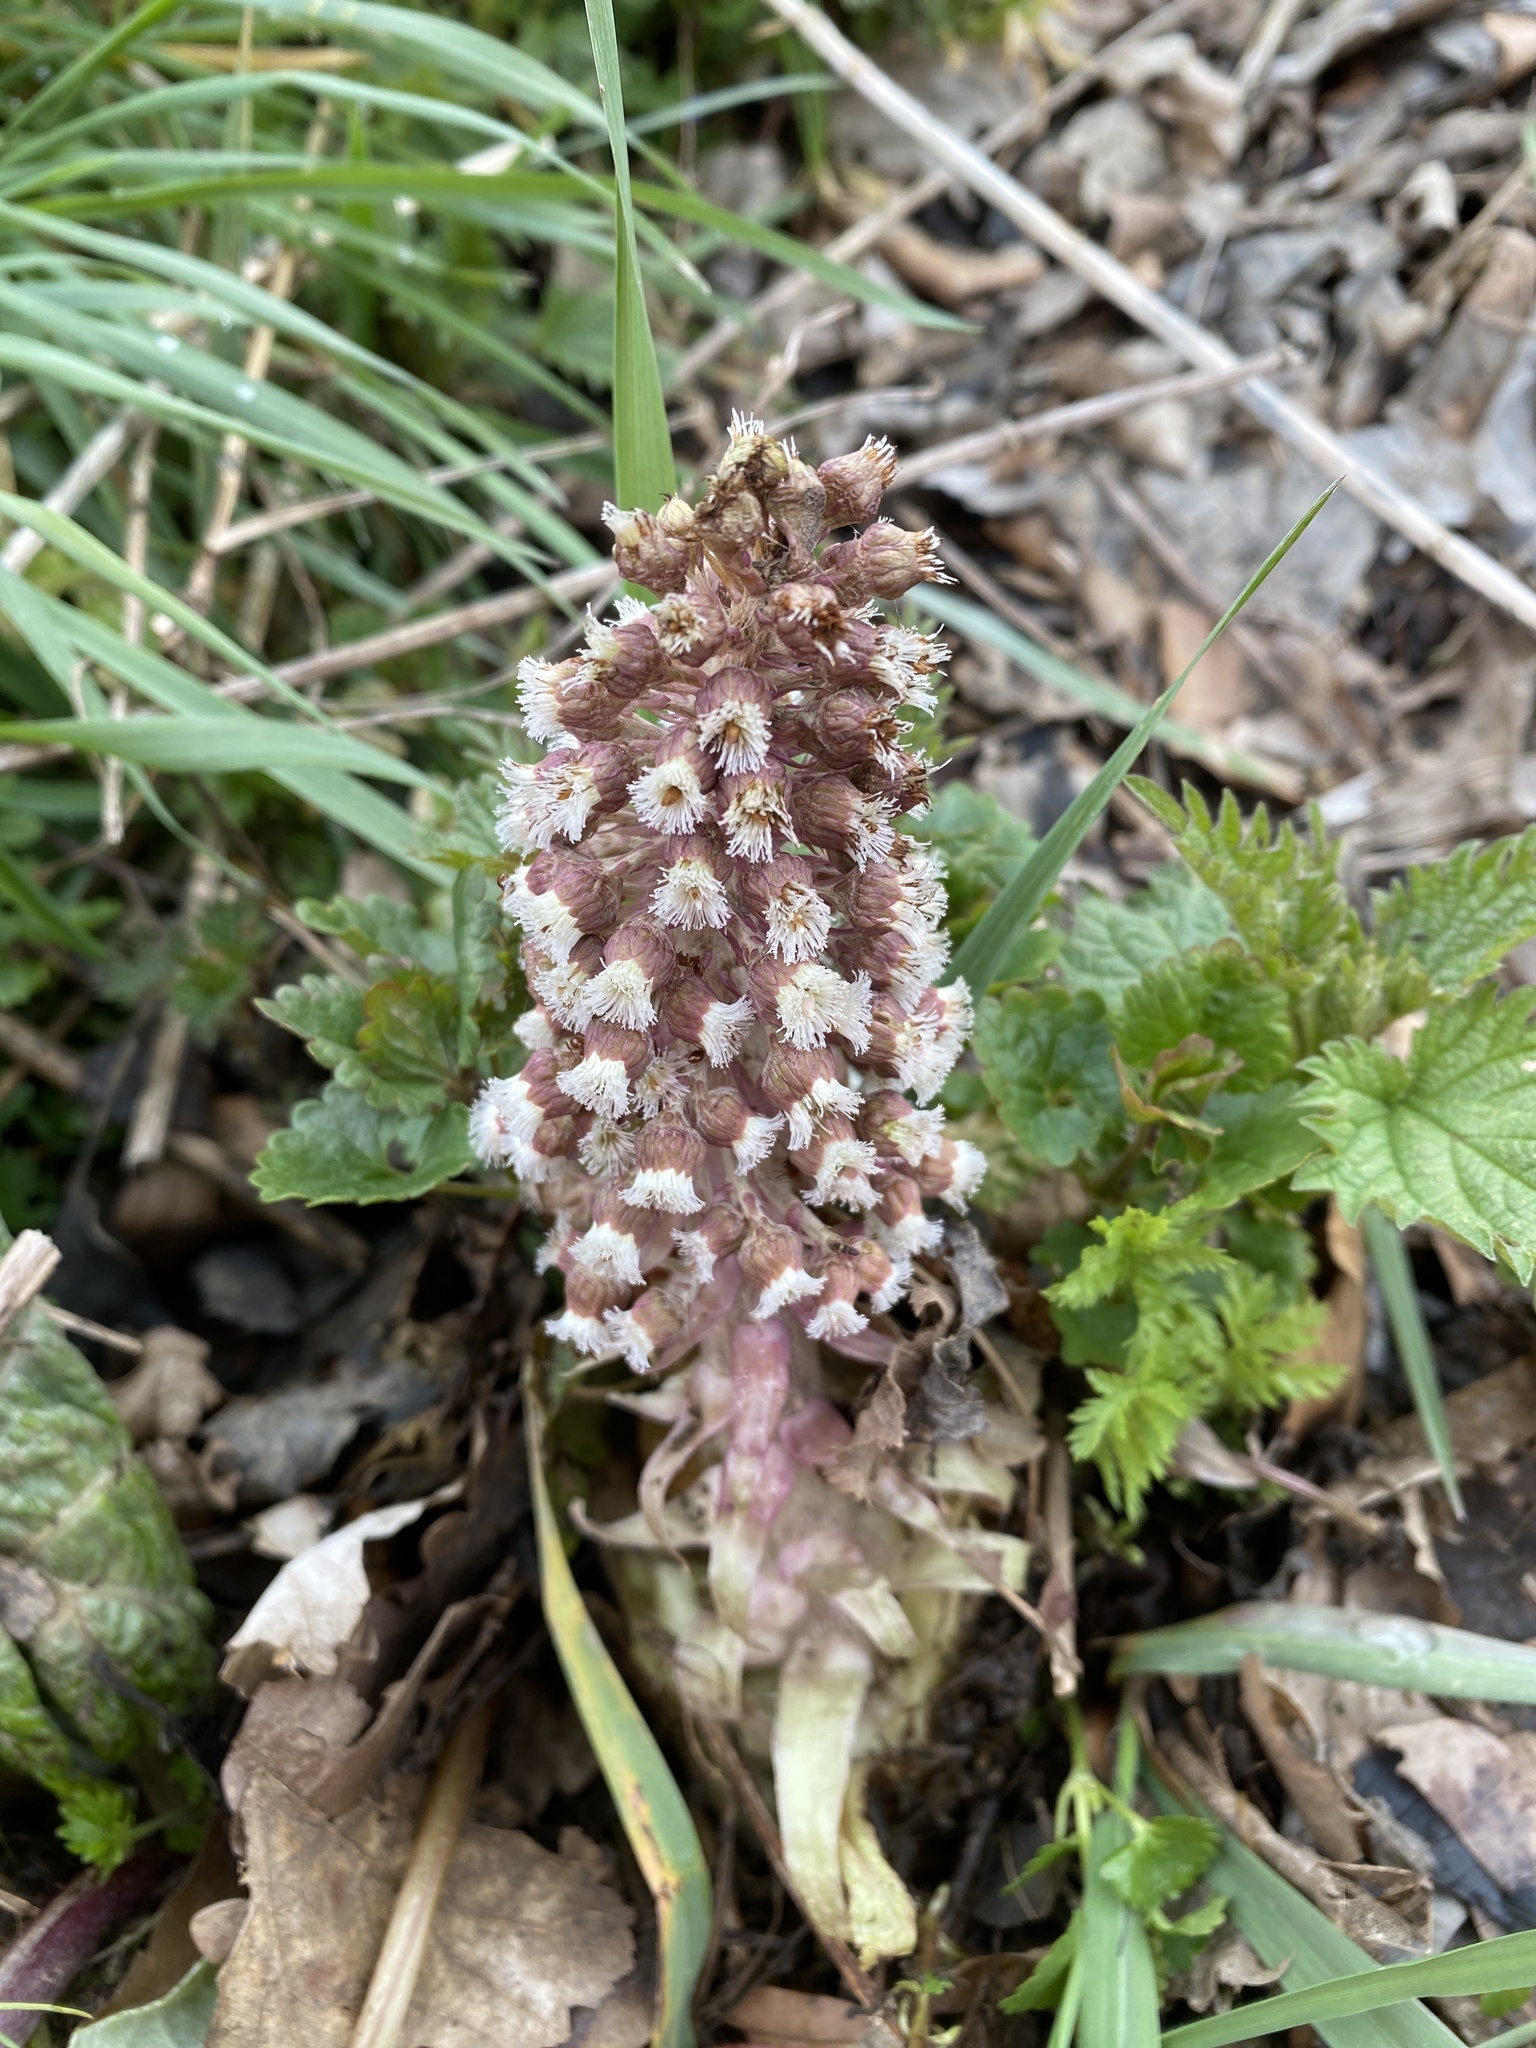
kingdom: Plantae
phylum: Tracheophyta
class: Magnoliopsida
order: Asterales
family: Asteraceae
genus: Petasites
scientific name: Petasites hybridus
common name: Butterbur
